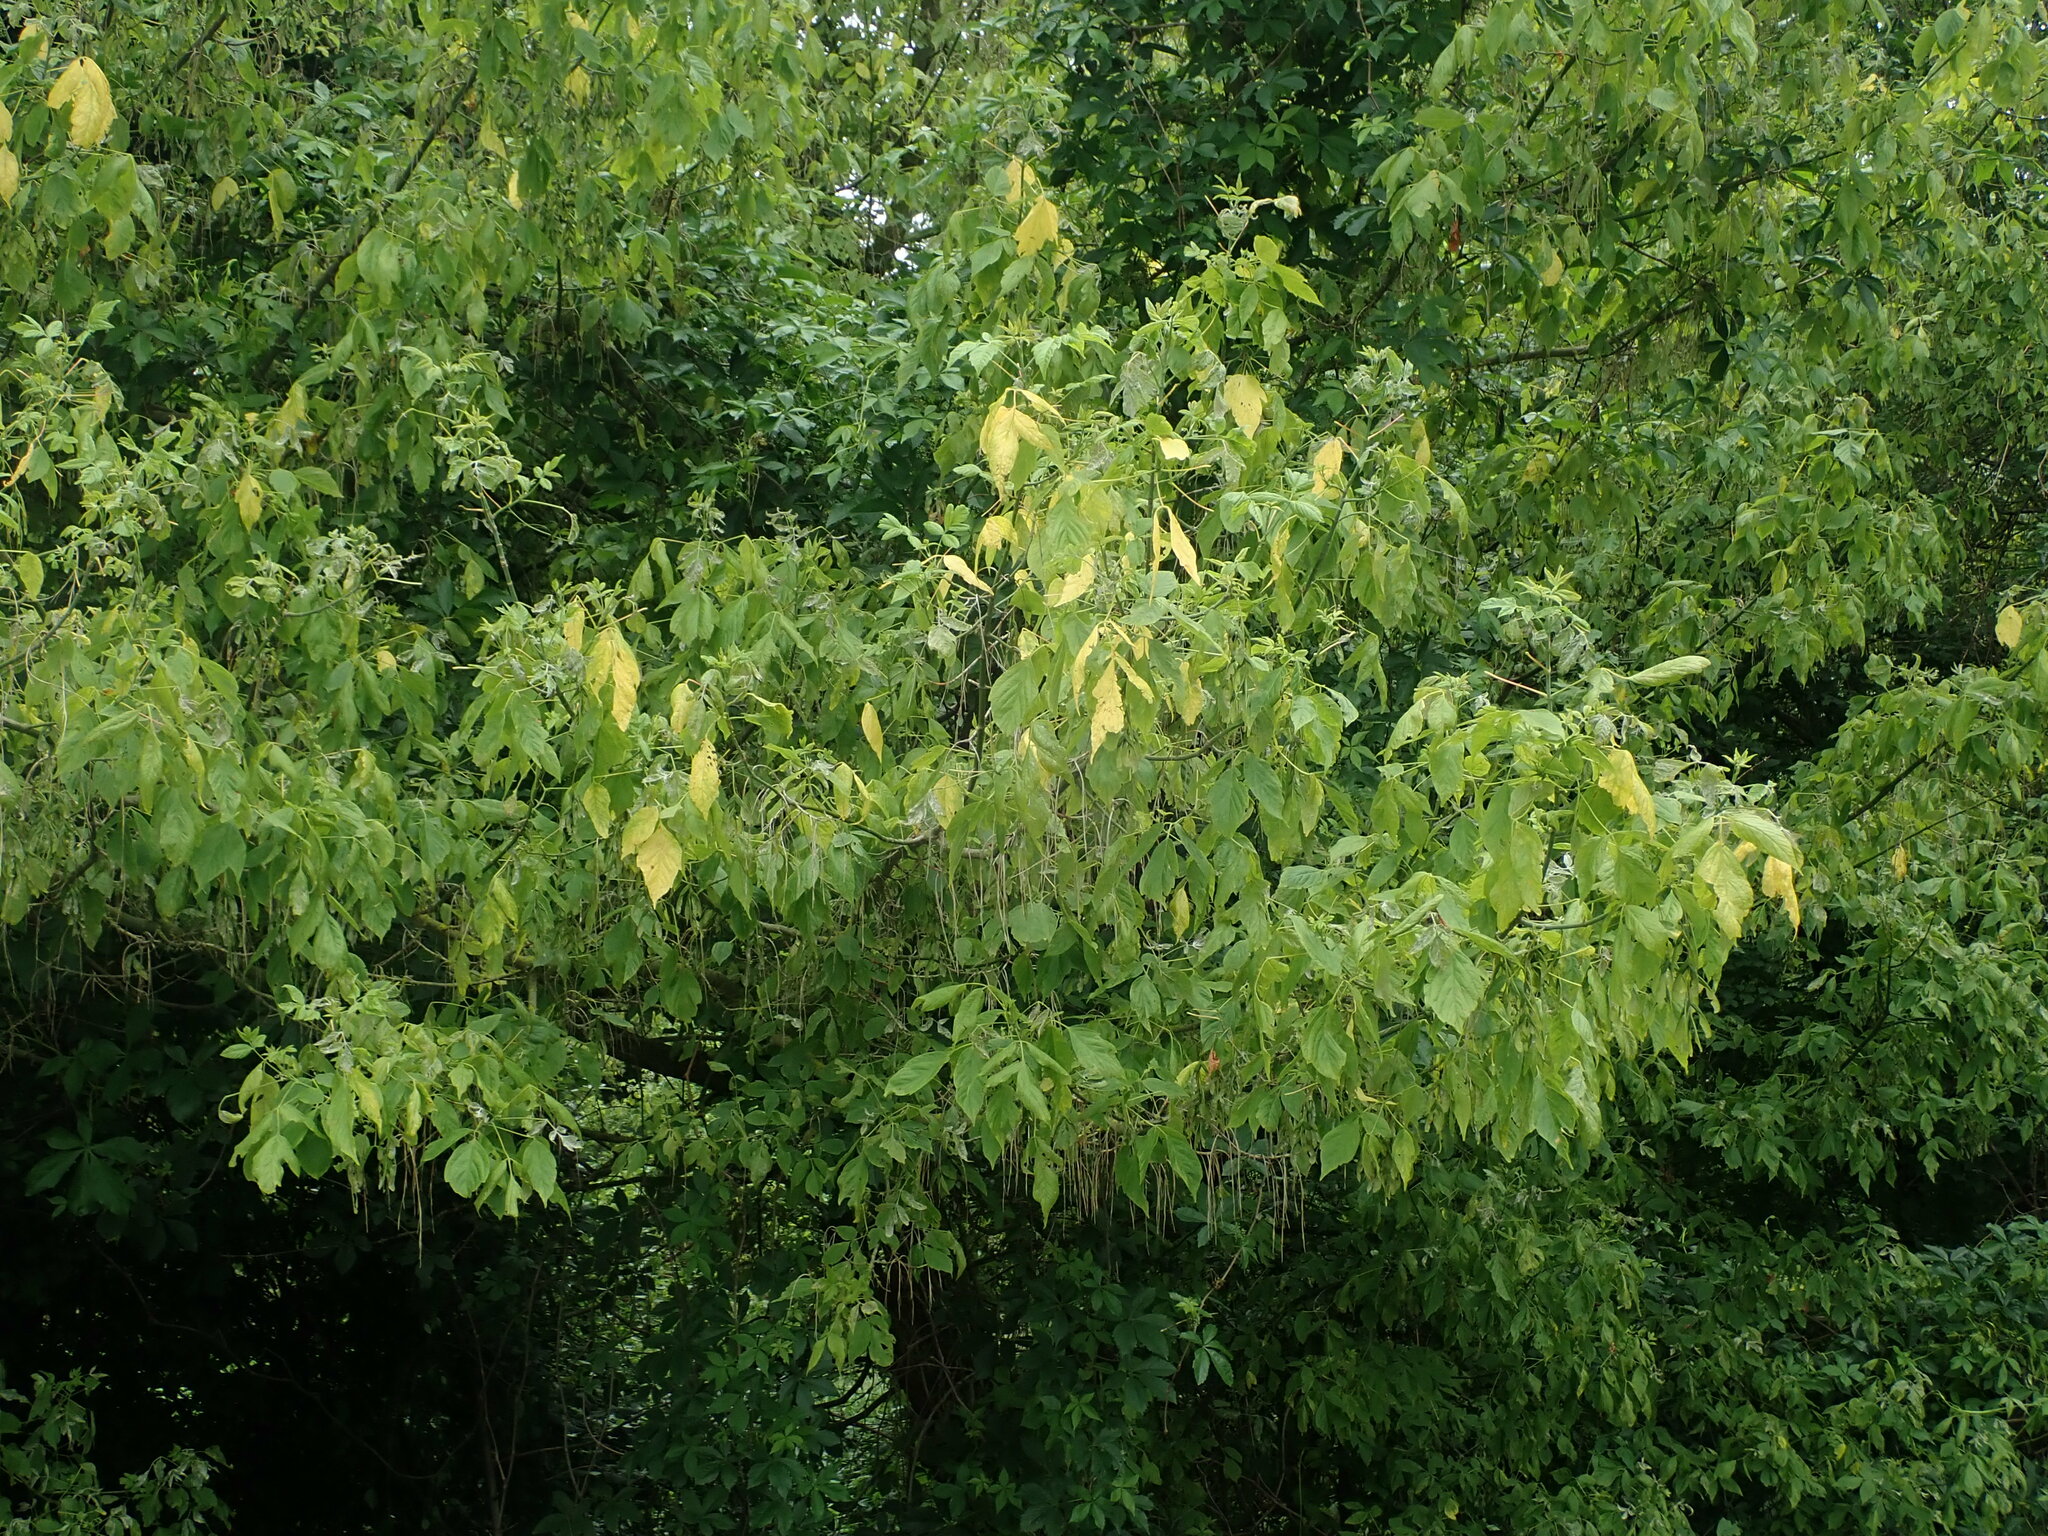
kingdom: Plantae
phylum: Tracheophyta
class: Magnoliopsida
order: Sapindales
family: Sapindaceae
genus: Acer
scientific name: Acer negundo
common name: Ashleaf maple
